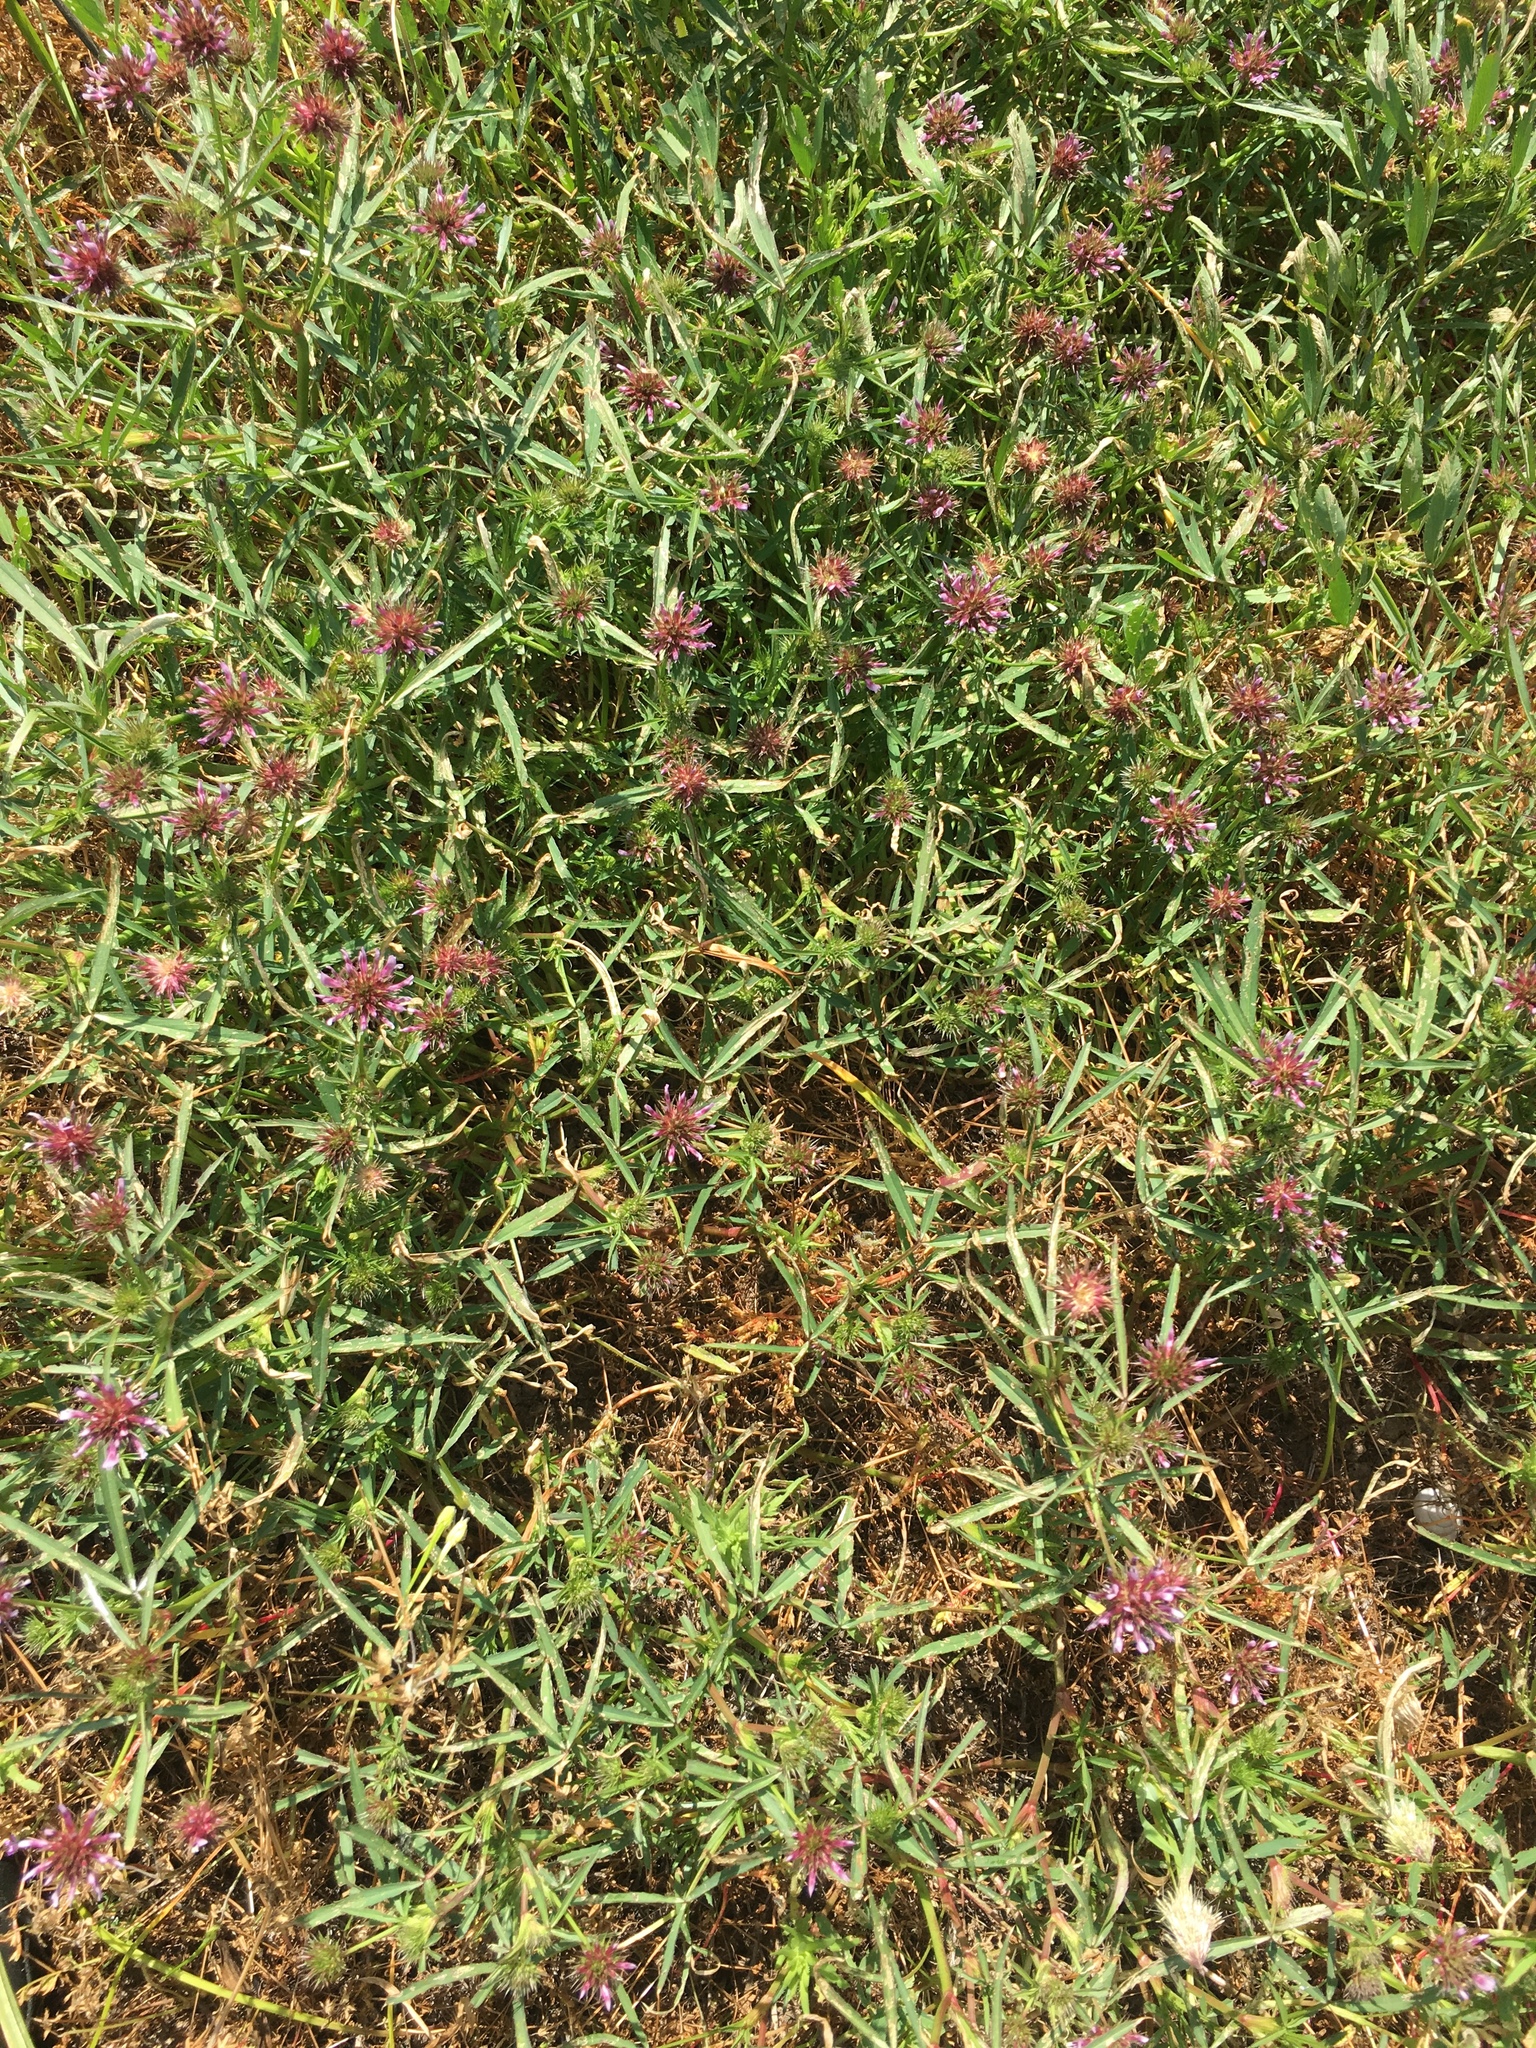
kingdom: Plantae
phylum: Tracheophyta
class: Magnoliopsida
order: Fabales
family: Fabaceae
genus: Trifolium
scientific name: Trifolium willdenovii
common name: Tomcat clover
